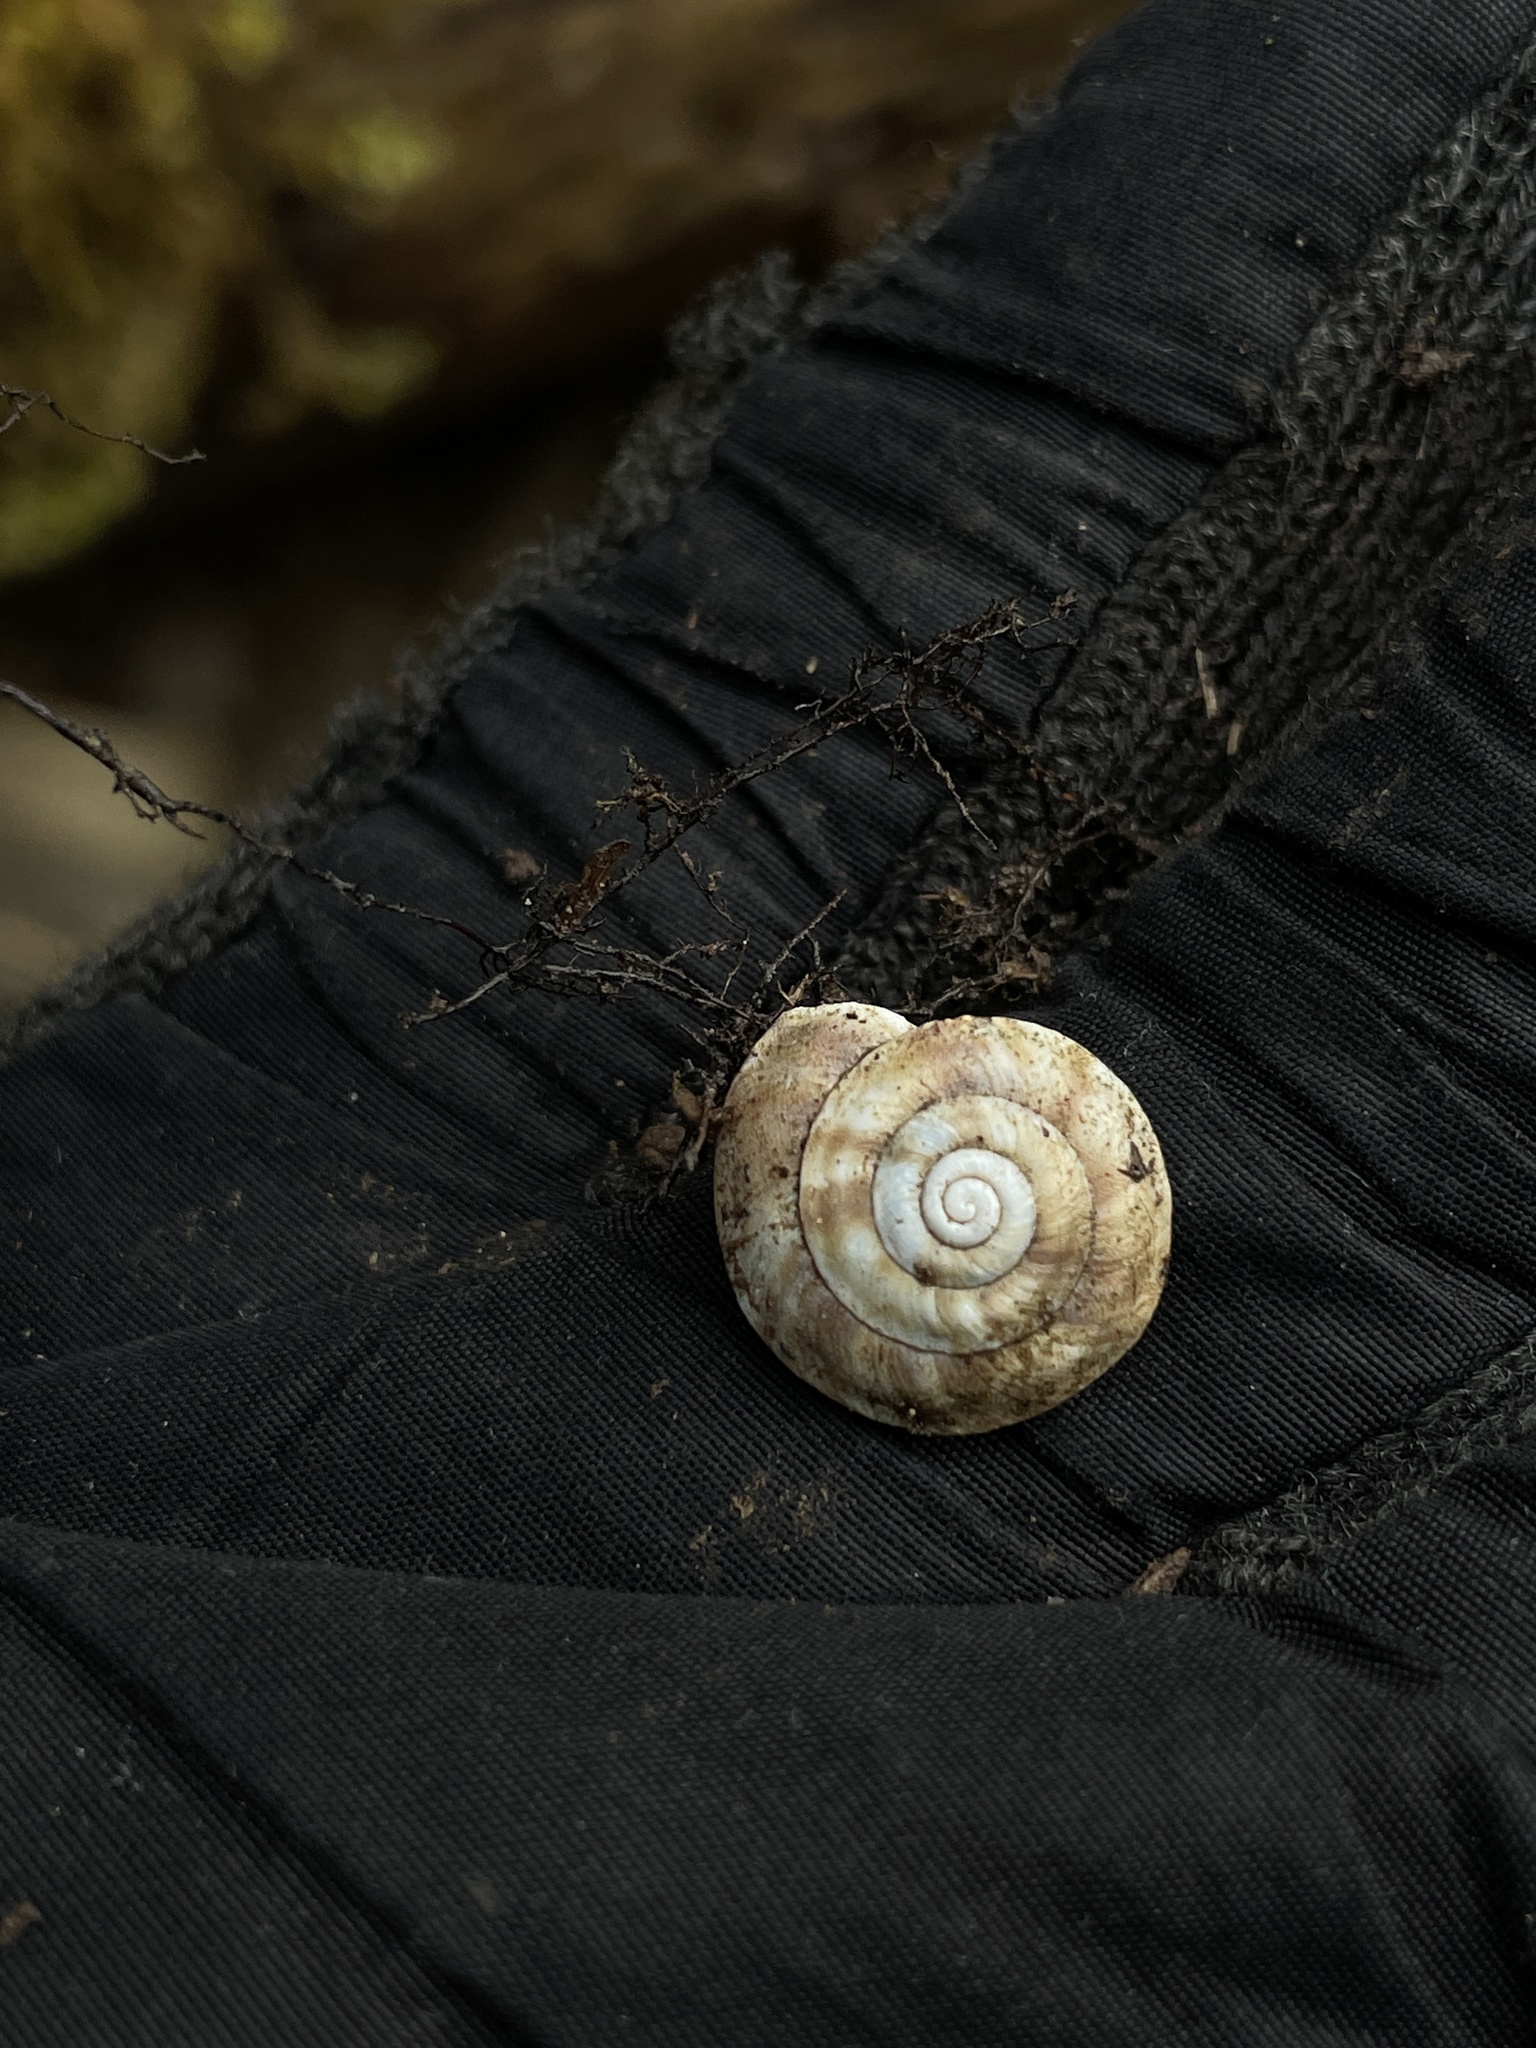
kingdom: Animalia
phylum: Mollusca
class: Gastropoda
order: Stylommatophora
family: Helicidae
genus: Helicigona
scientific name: Helicigona lapicida
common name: Lapidary snail
